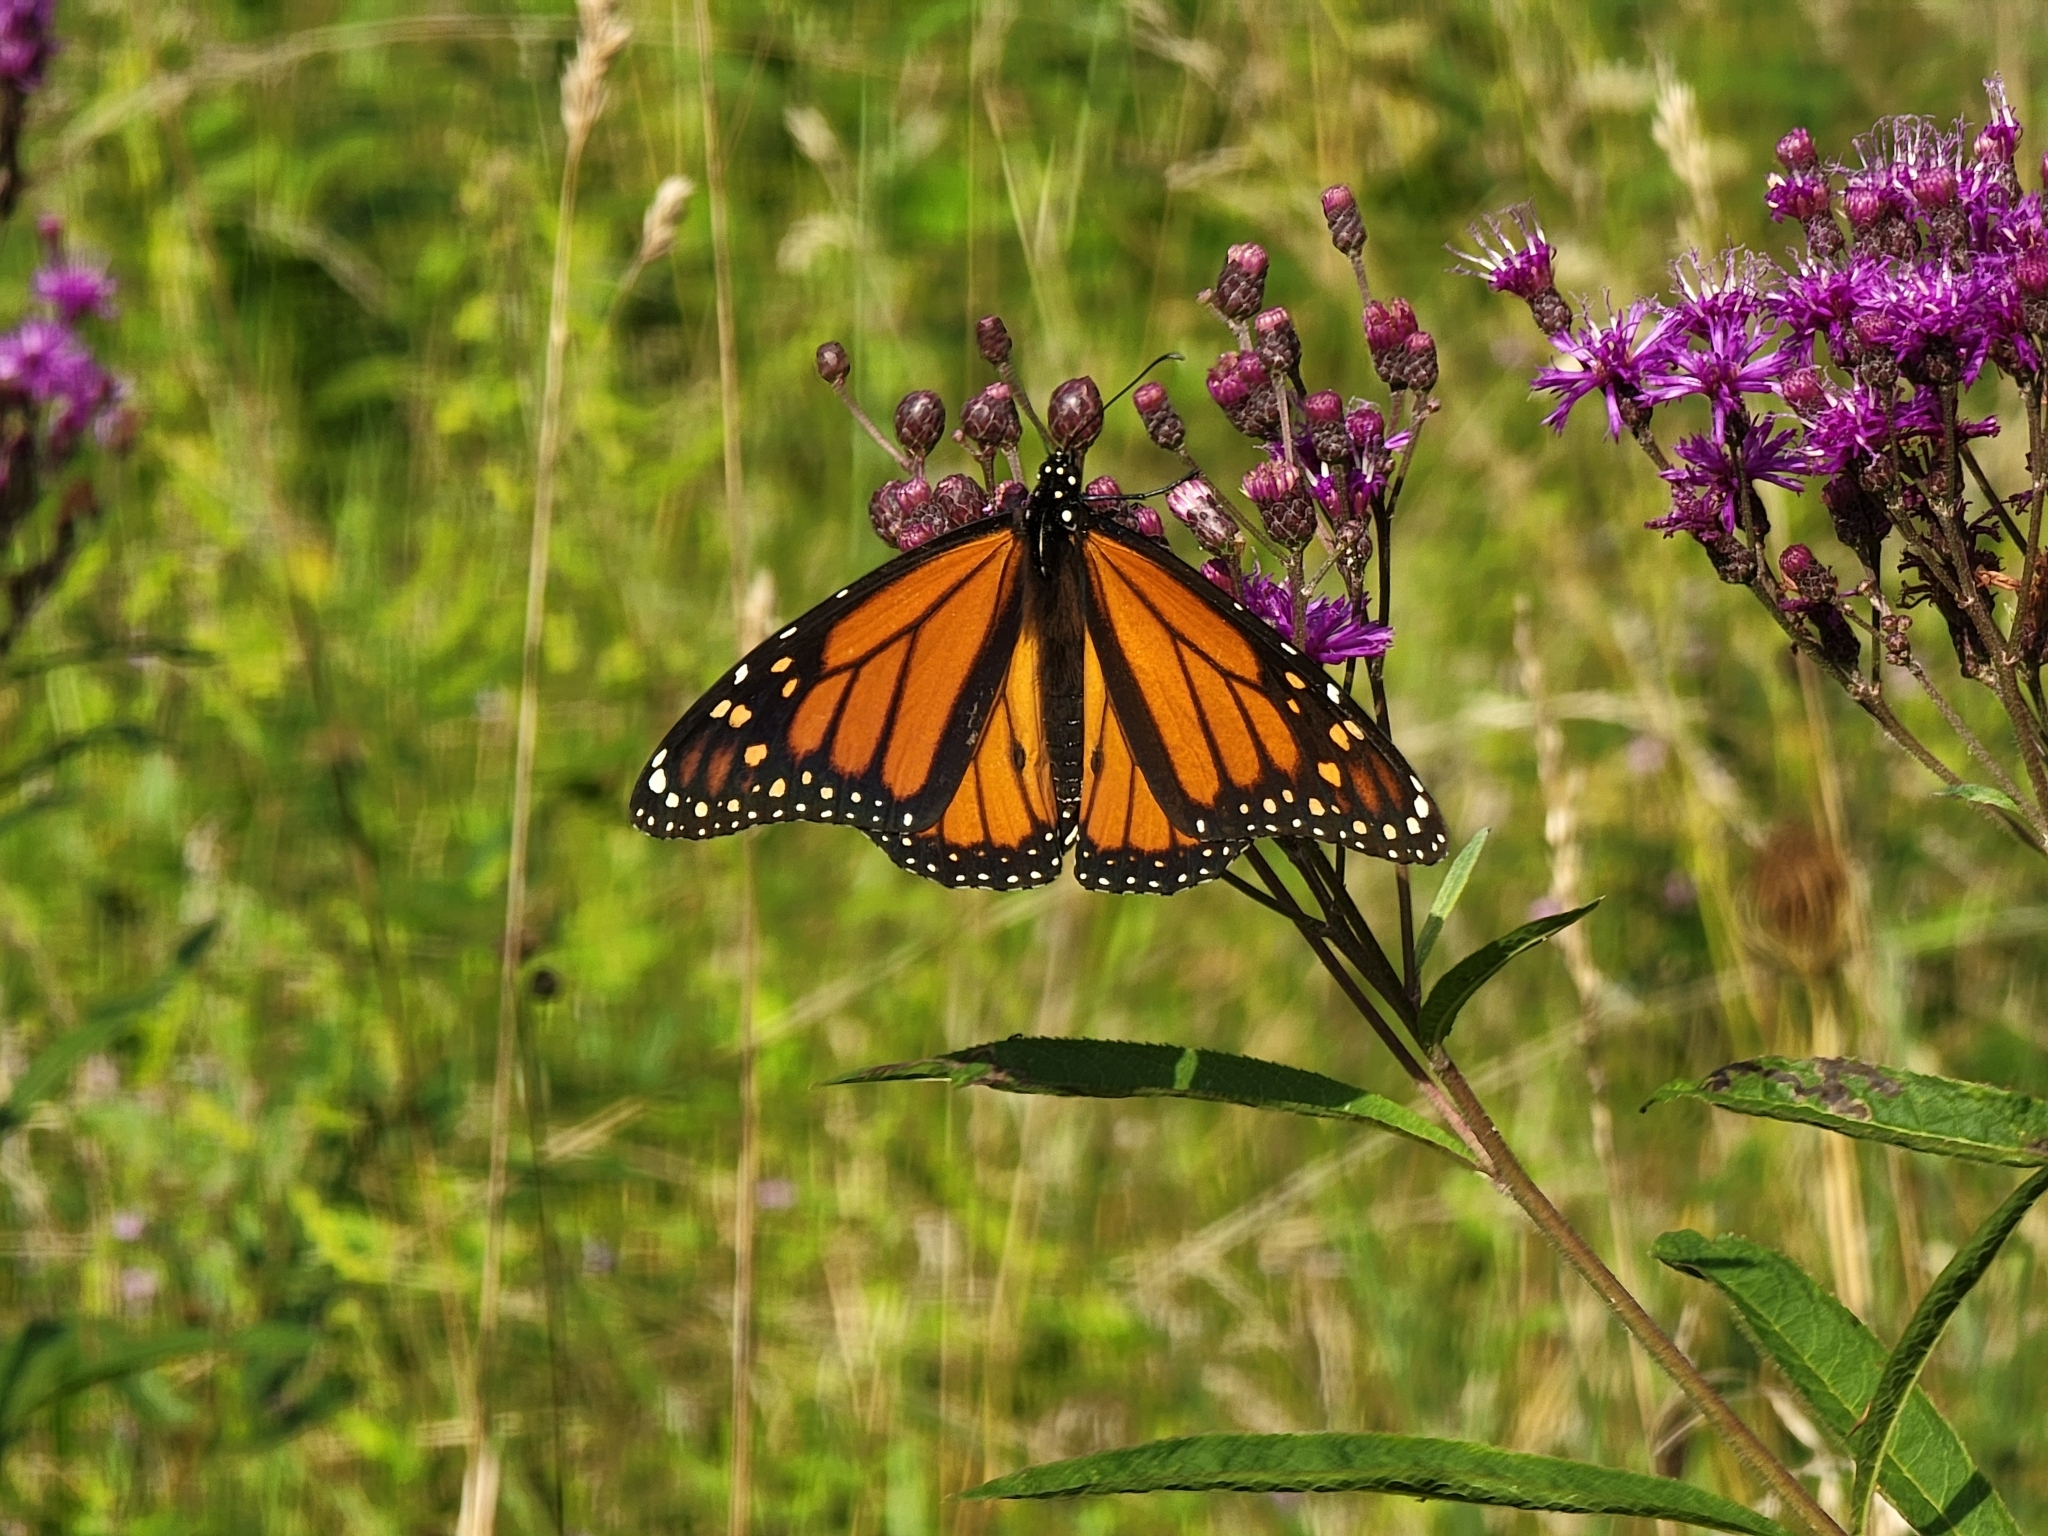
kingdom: Animalia
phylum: Arthropoda
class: Insecta
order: Lepidoptera
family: Nymphalidae
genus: Danaus
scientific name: Danaus plexippus
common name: Monarch
